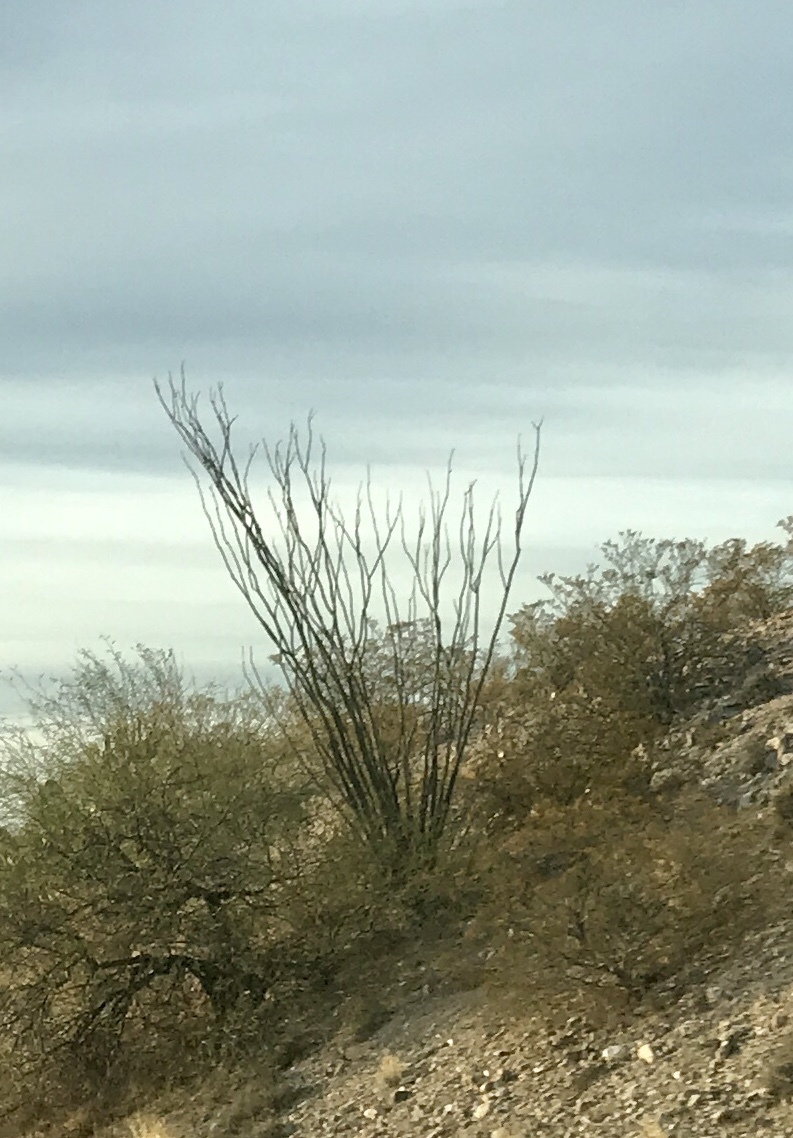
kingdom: Plantae
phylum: Tracheophyta
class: Magnoliopsida
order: Ericales
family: Fouquieriaceae
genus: Fouquieria
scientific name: Fouquieria splendens
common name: Vine-cactus
